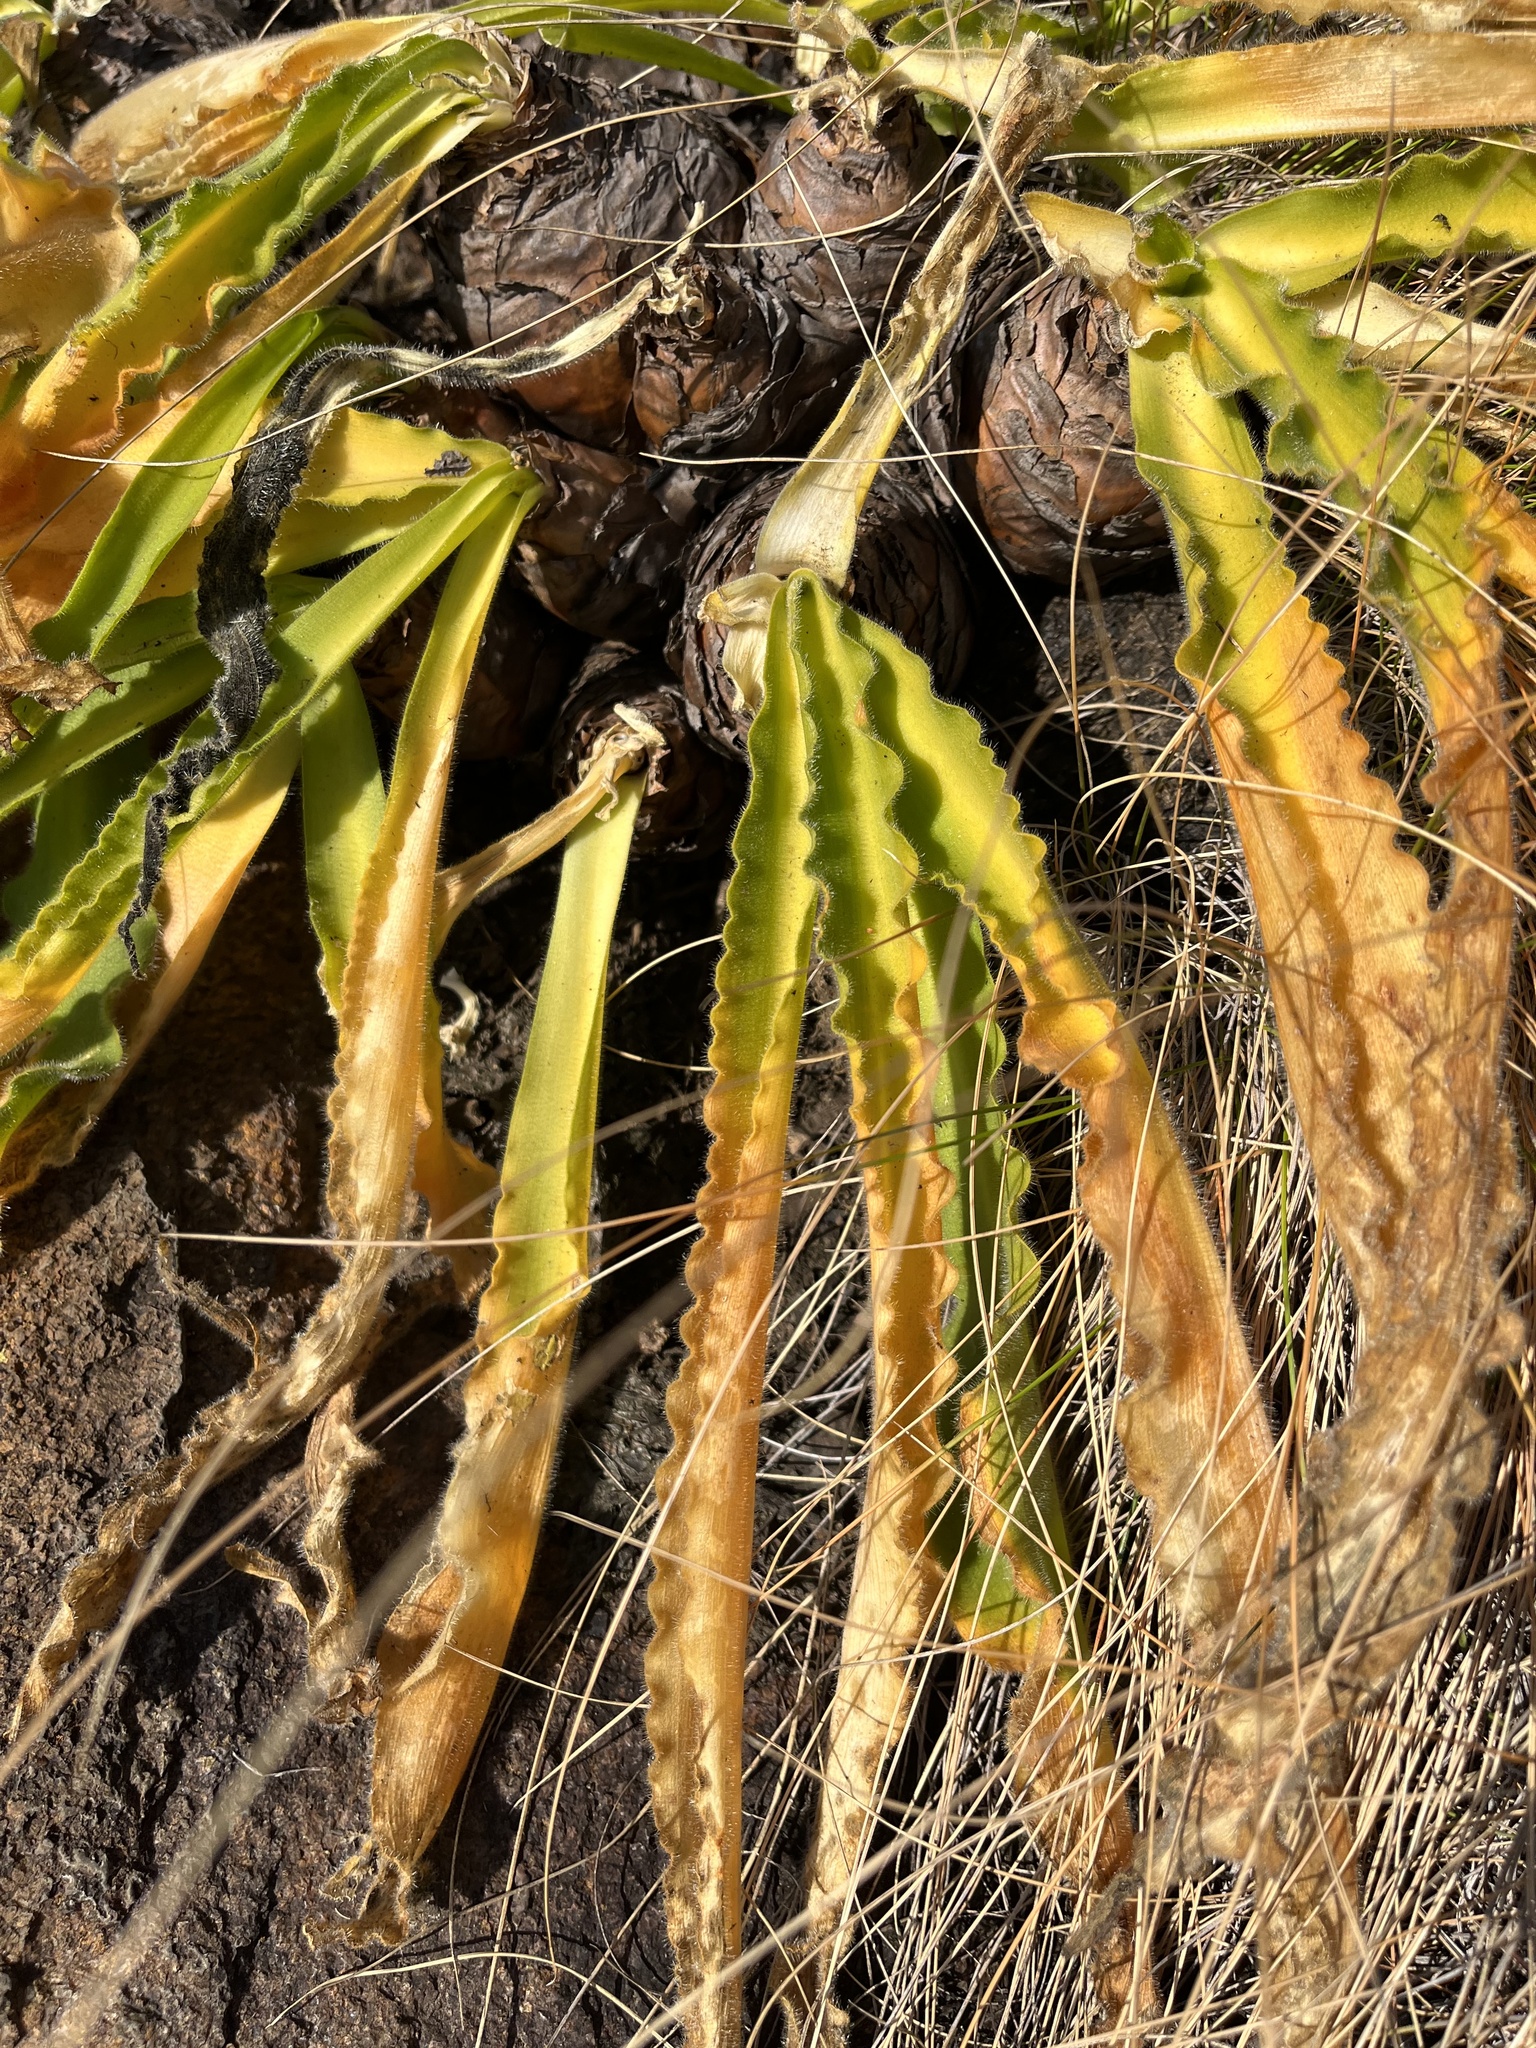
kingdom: Plantae
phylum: Tracheophyta
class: Liliopsida
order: Asparagales
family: Asparagaceae
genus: Merwilla
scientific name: Merwilla plumbea
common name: Blue-squill
